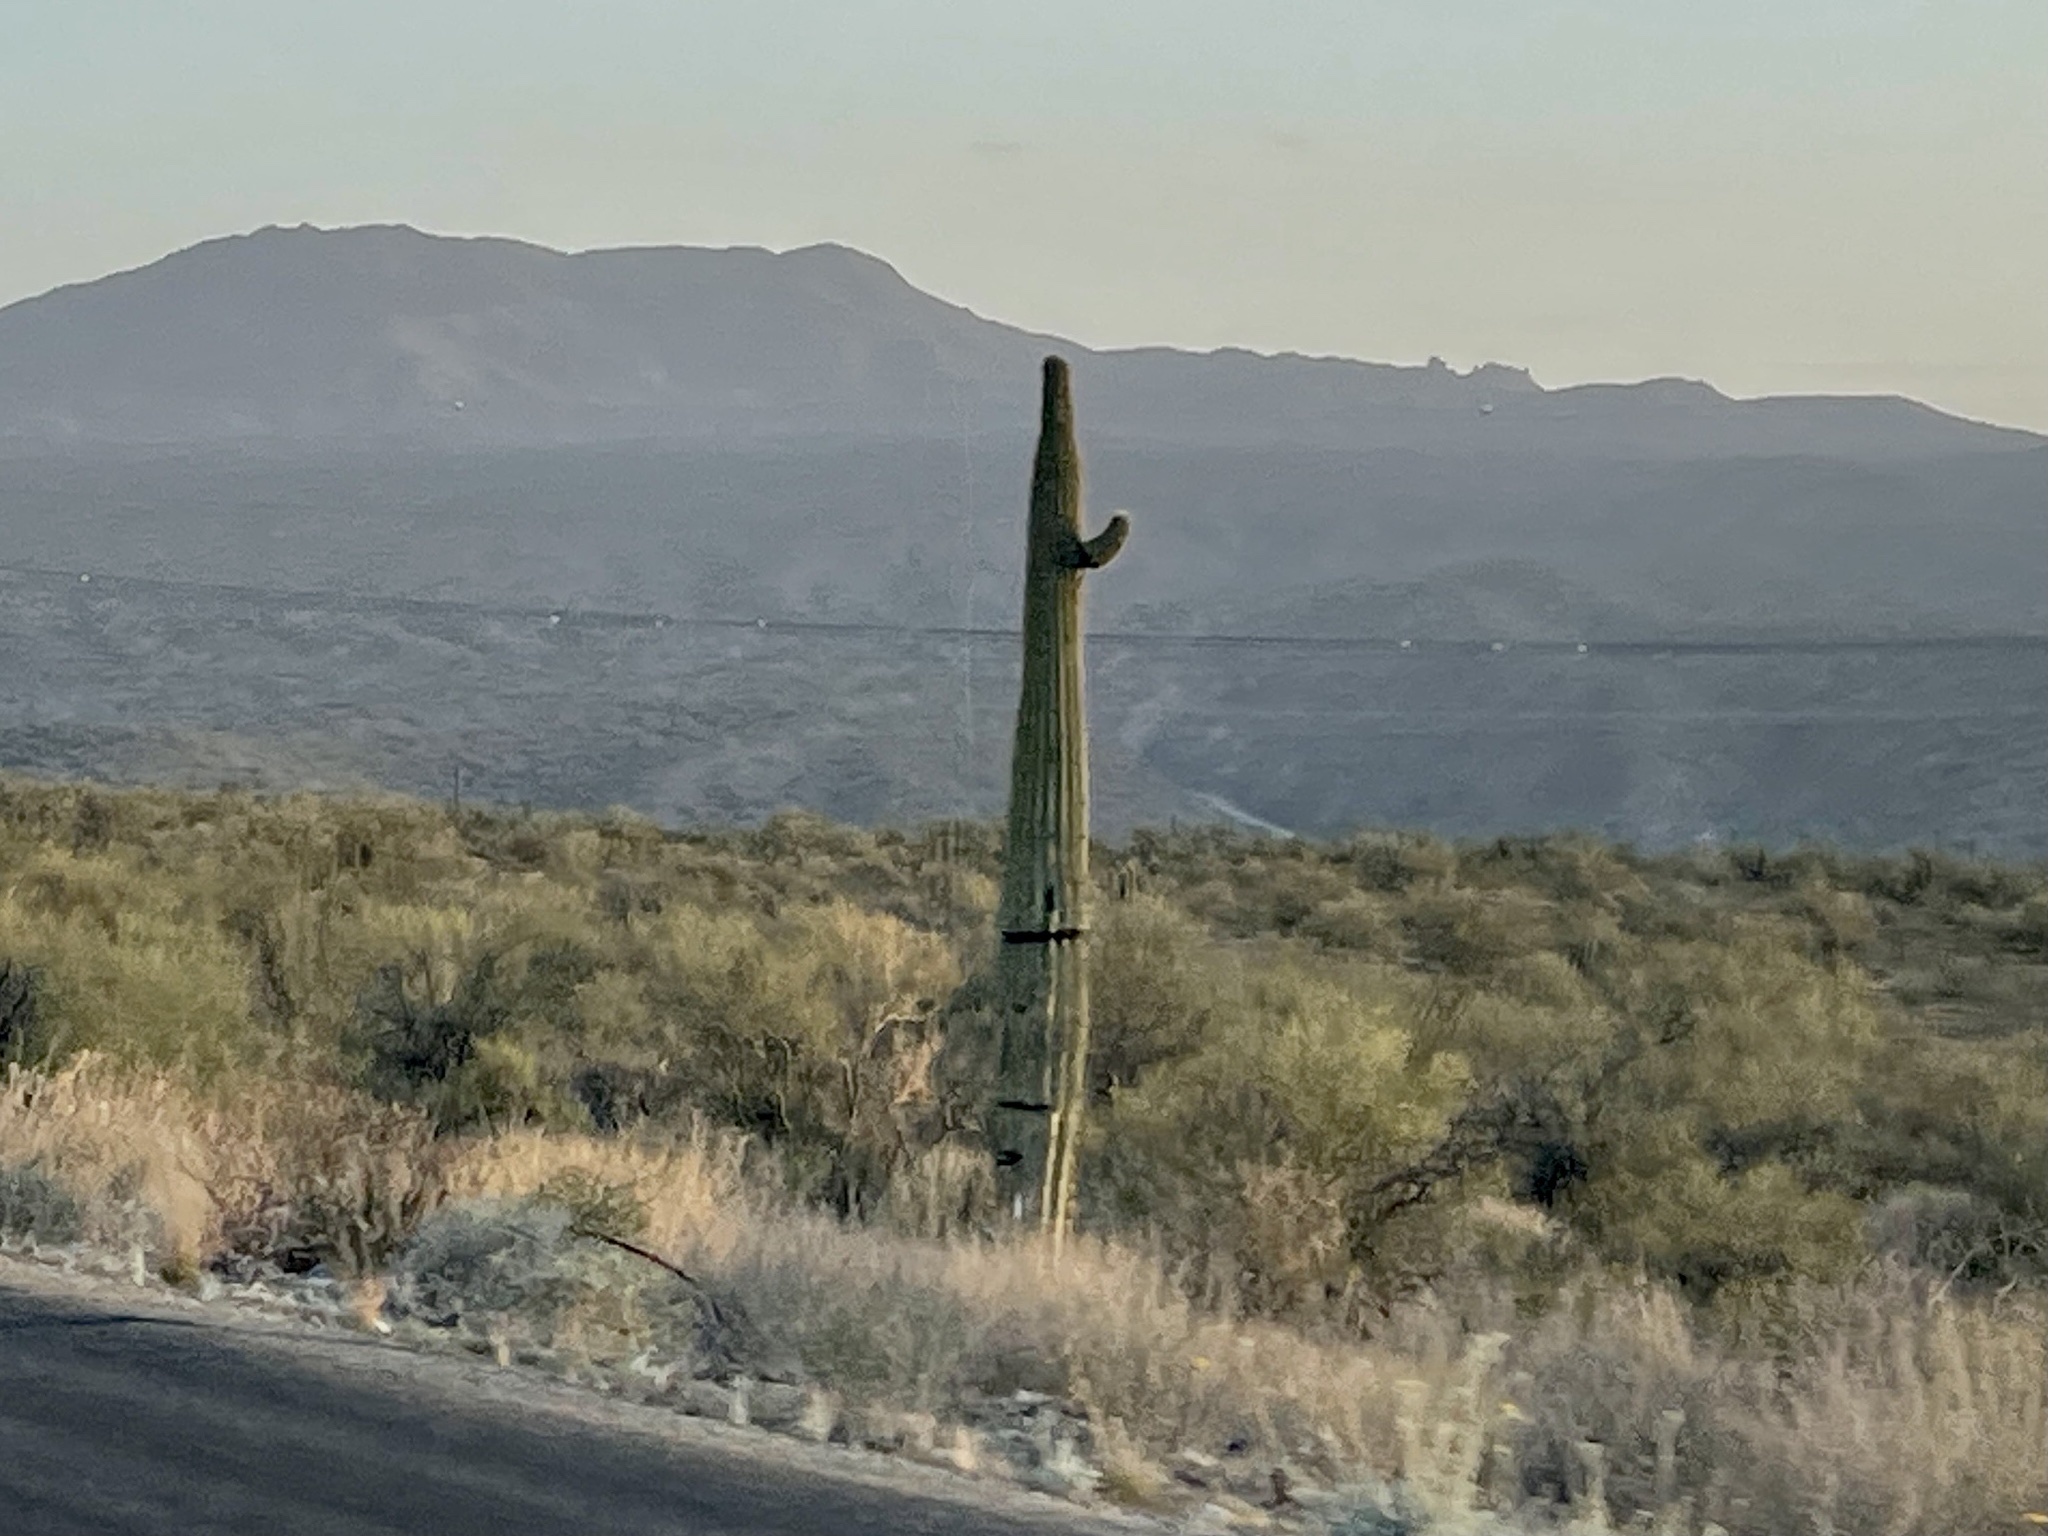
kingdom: Plantae
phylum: Tracheophyta
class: Magnoliopsida
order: Caryophyllales
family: Cactaceae
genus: Carnegiea
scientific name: Carnegiea gigantea
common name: Saguaro
